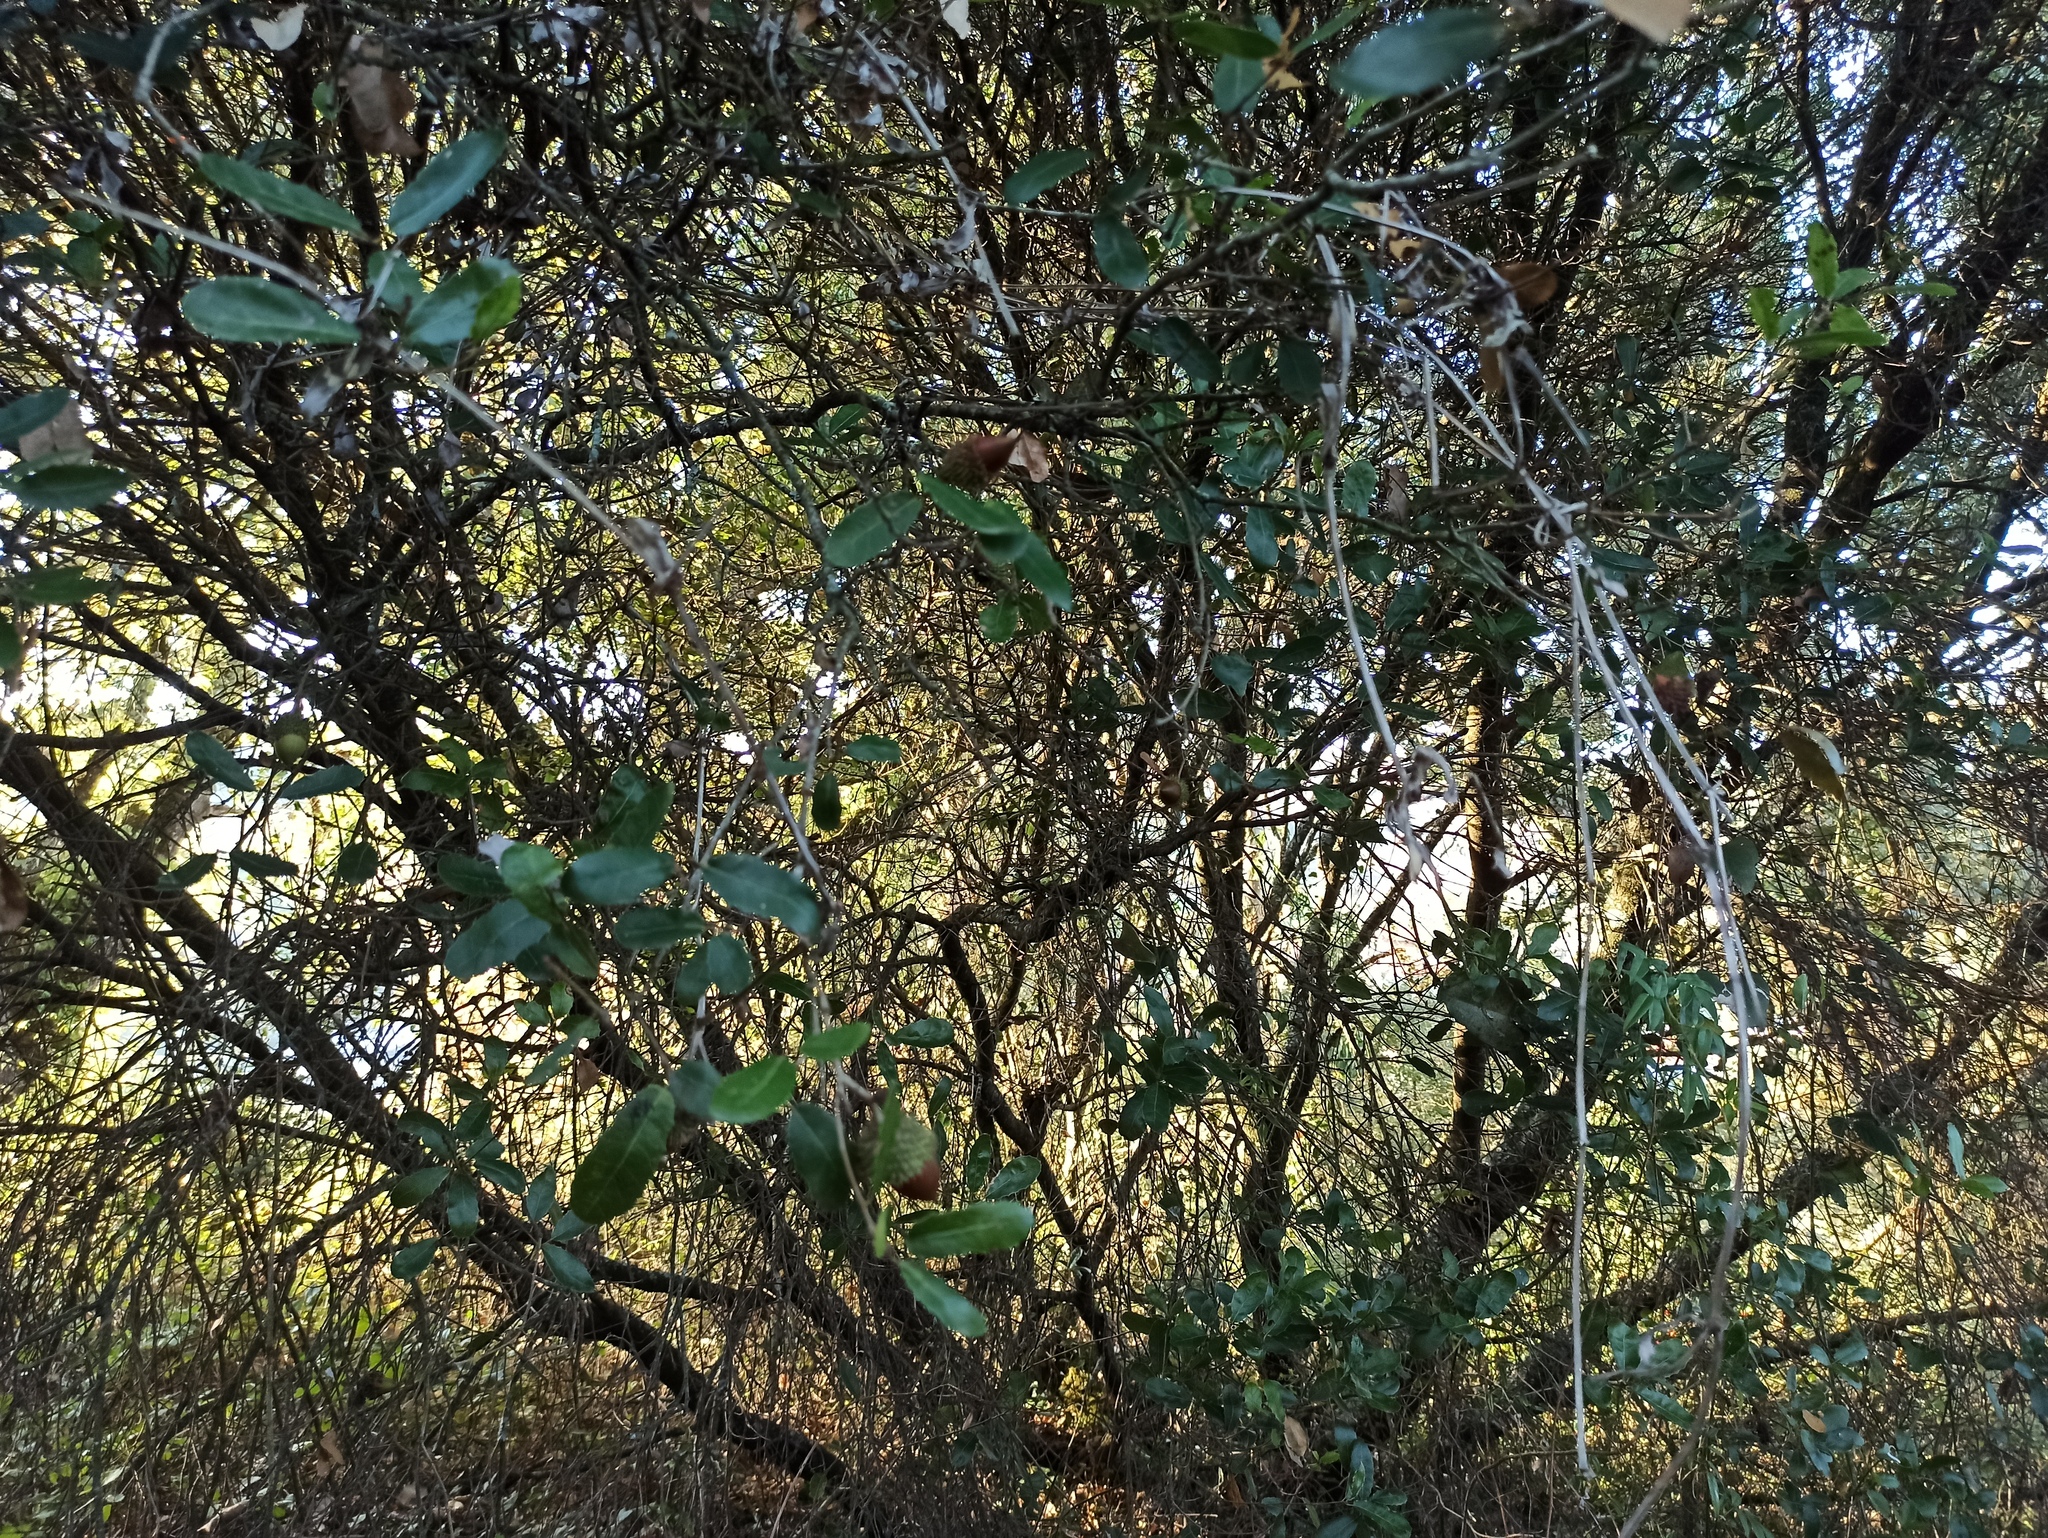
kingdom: Plantae
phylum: Tracheophyta
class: Magnoliopsida
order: Fagales
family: Fagaceae
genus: Quercus
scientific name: Quercus coccifera
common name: Kermes oak
